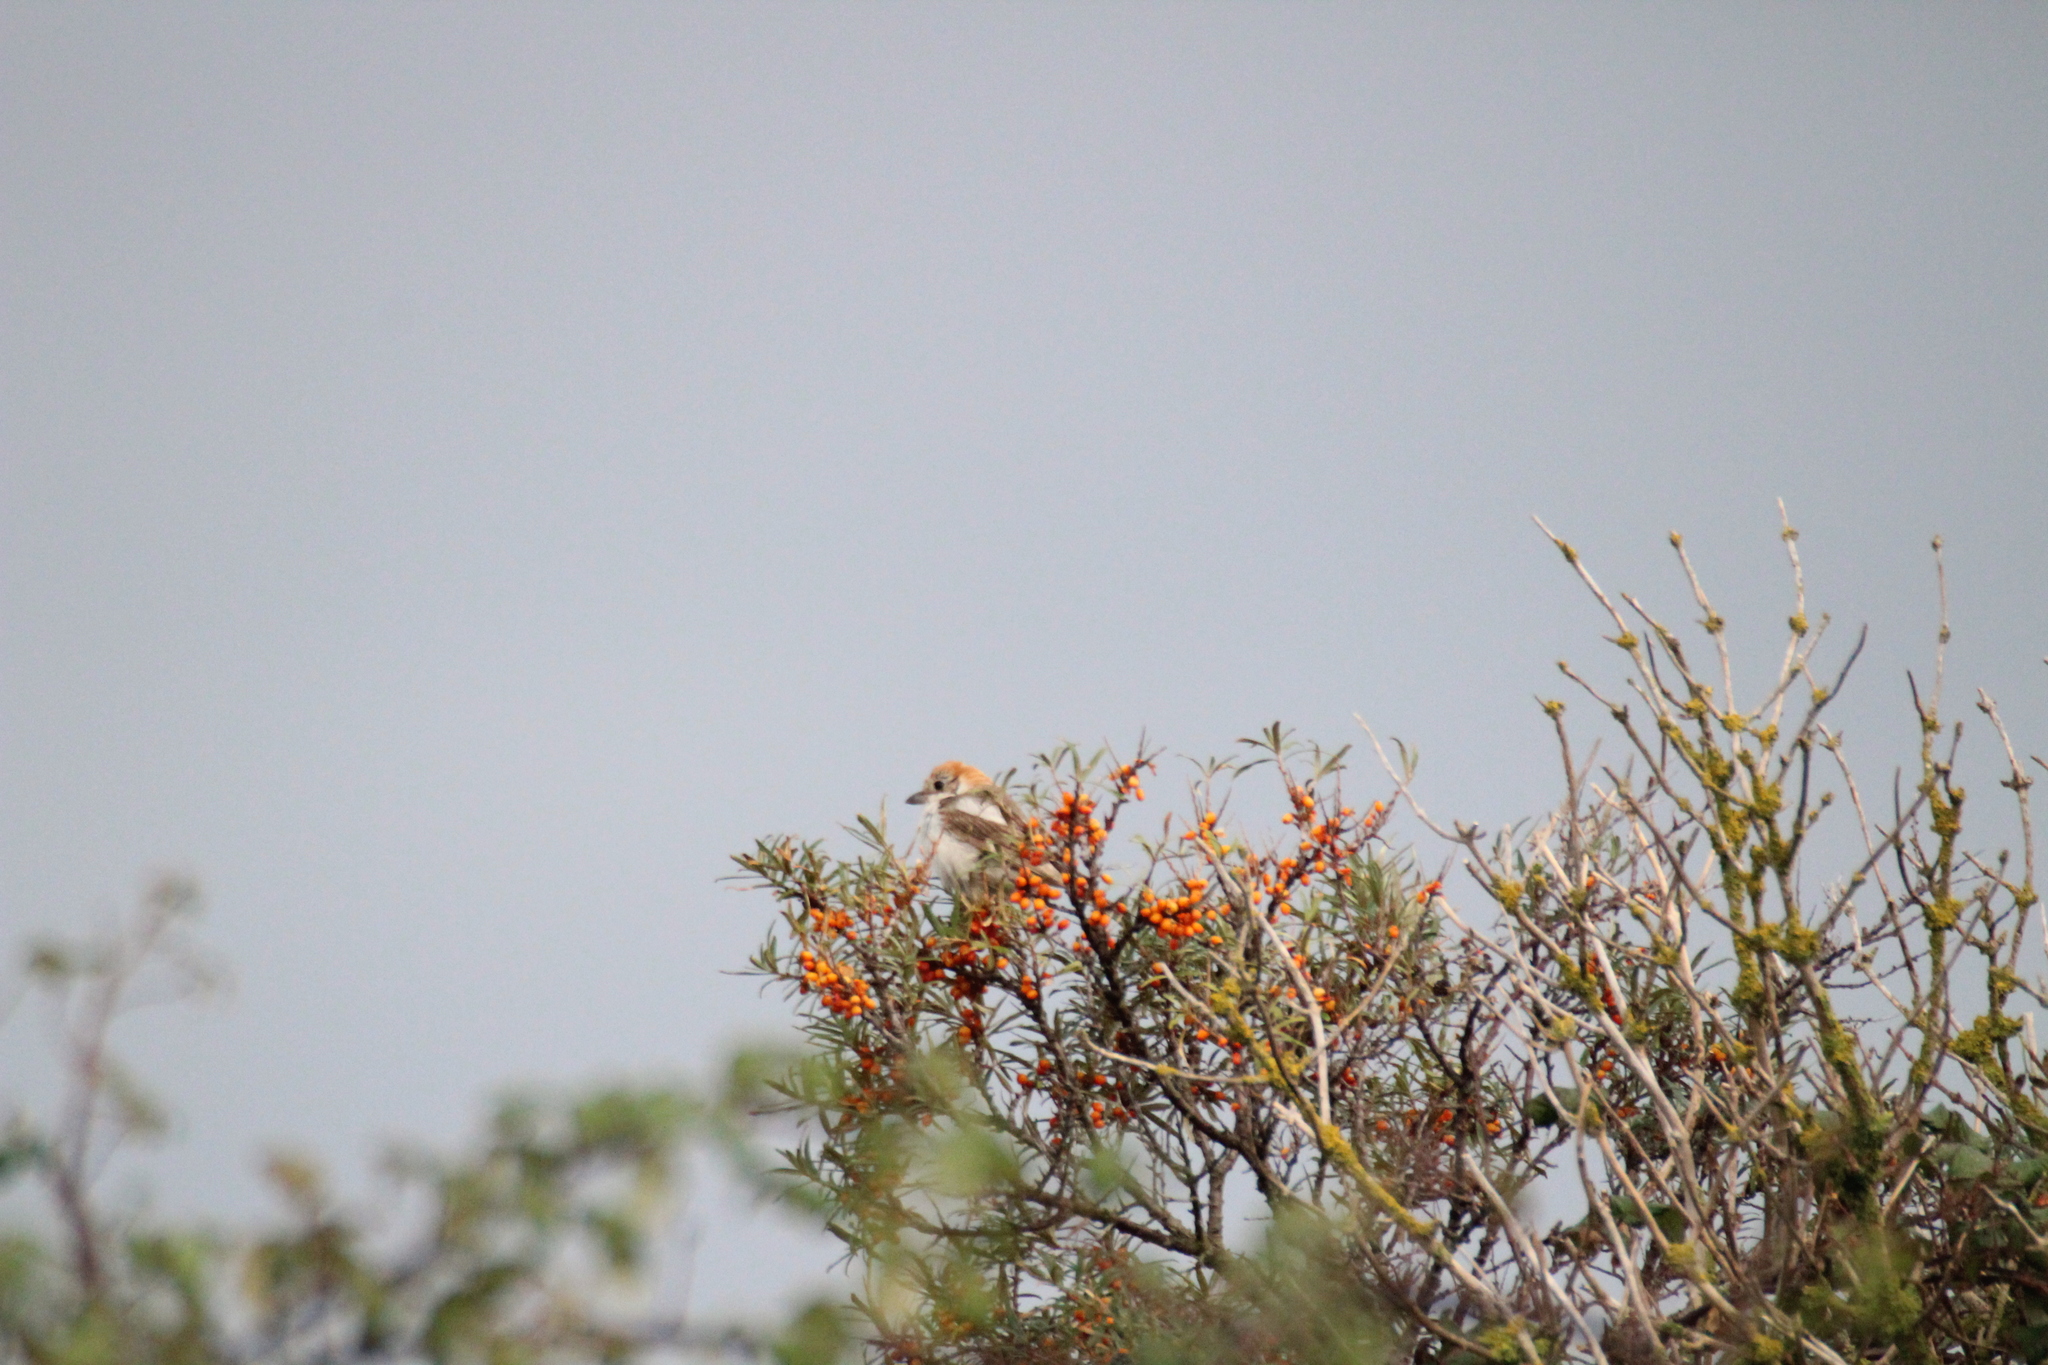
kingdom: Animalia
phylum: Chordata
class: Aves
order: Passeriformes
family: Laniidae
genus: Lanius
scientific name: Lanius senator
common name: Woodchat shrike
